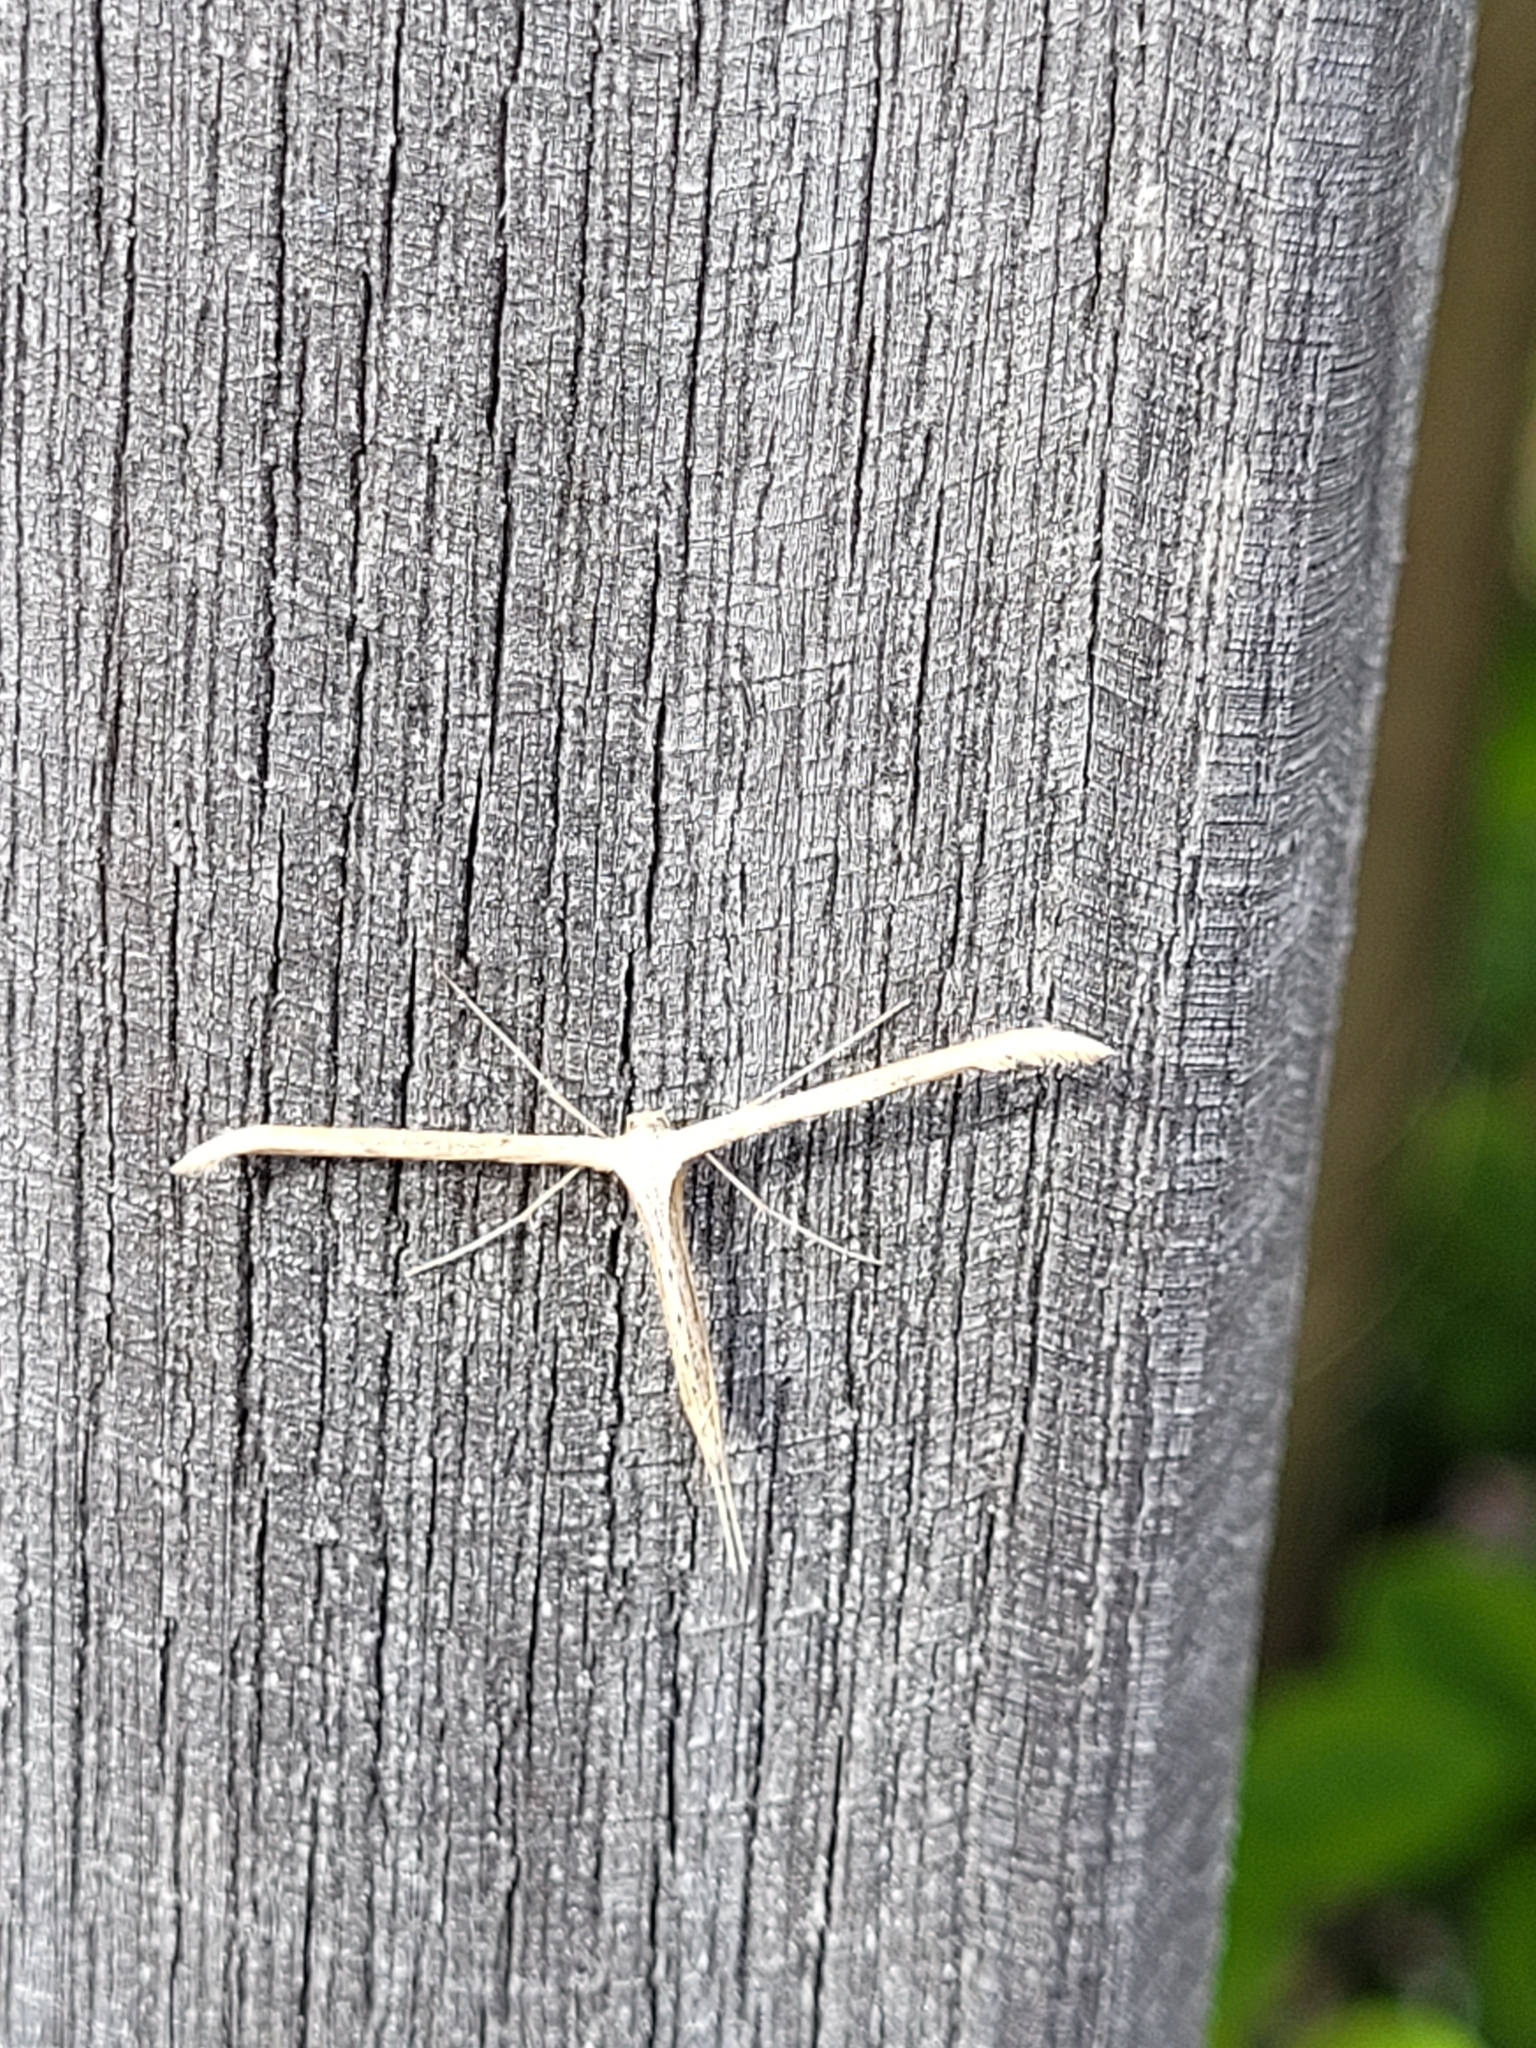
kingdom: Animalia
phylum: Arthropoda
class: Insecta
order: Lepidoptera
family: Pterophoridae
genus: Emmelina
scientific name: Emmelina monodactyla
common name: Common plume
